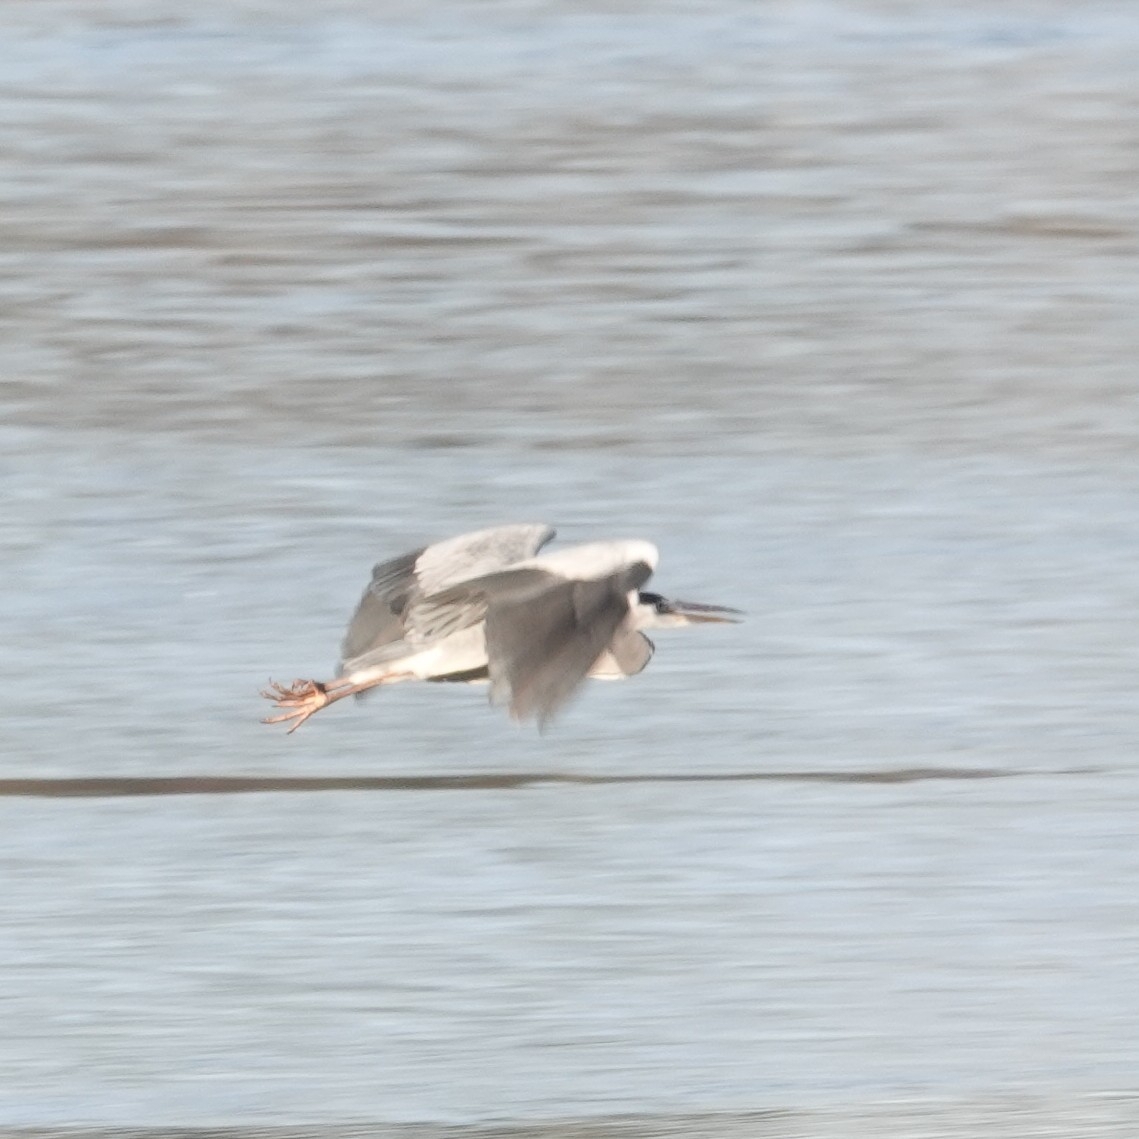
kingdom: Animalia
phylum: Chordata
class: Aves
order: Pelecaniformes
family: Ardeidae
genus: Ardea
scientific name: Ardea cinerea
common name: Grey heron
